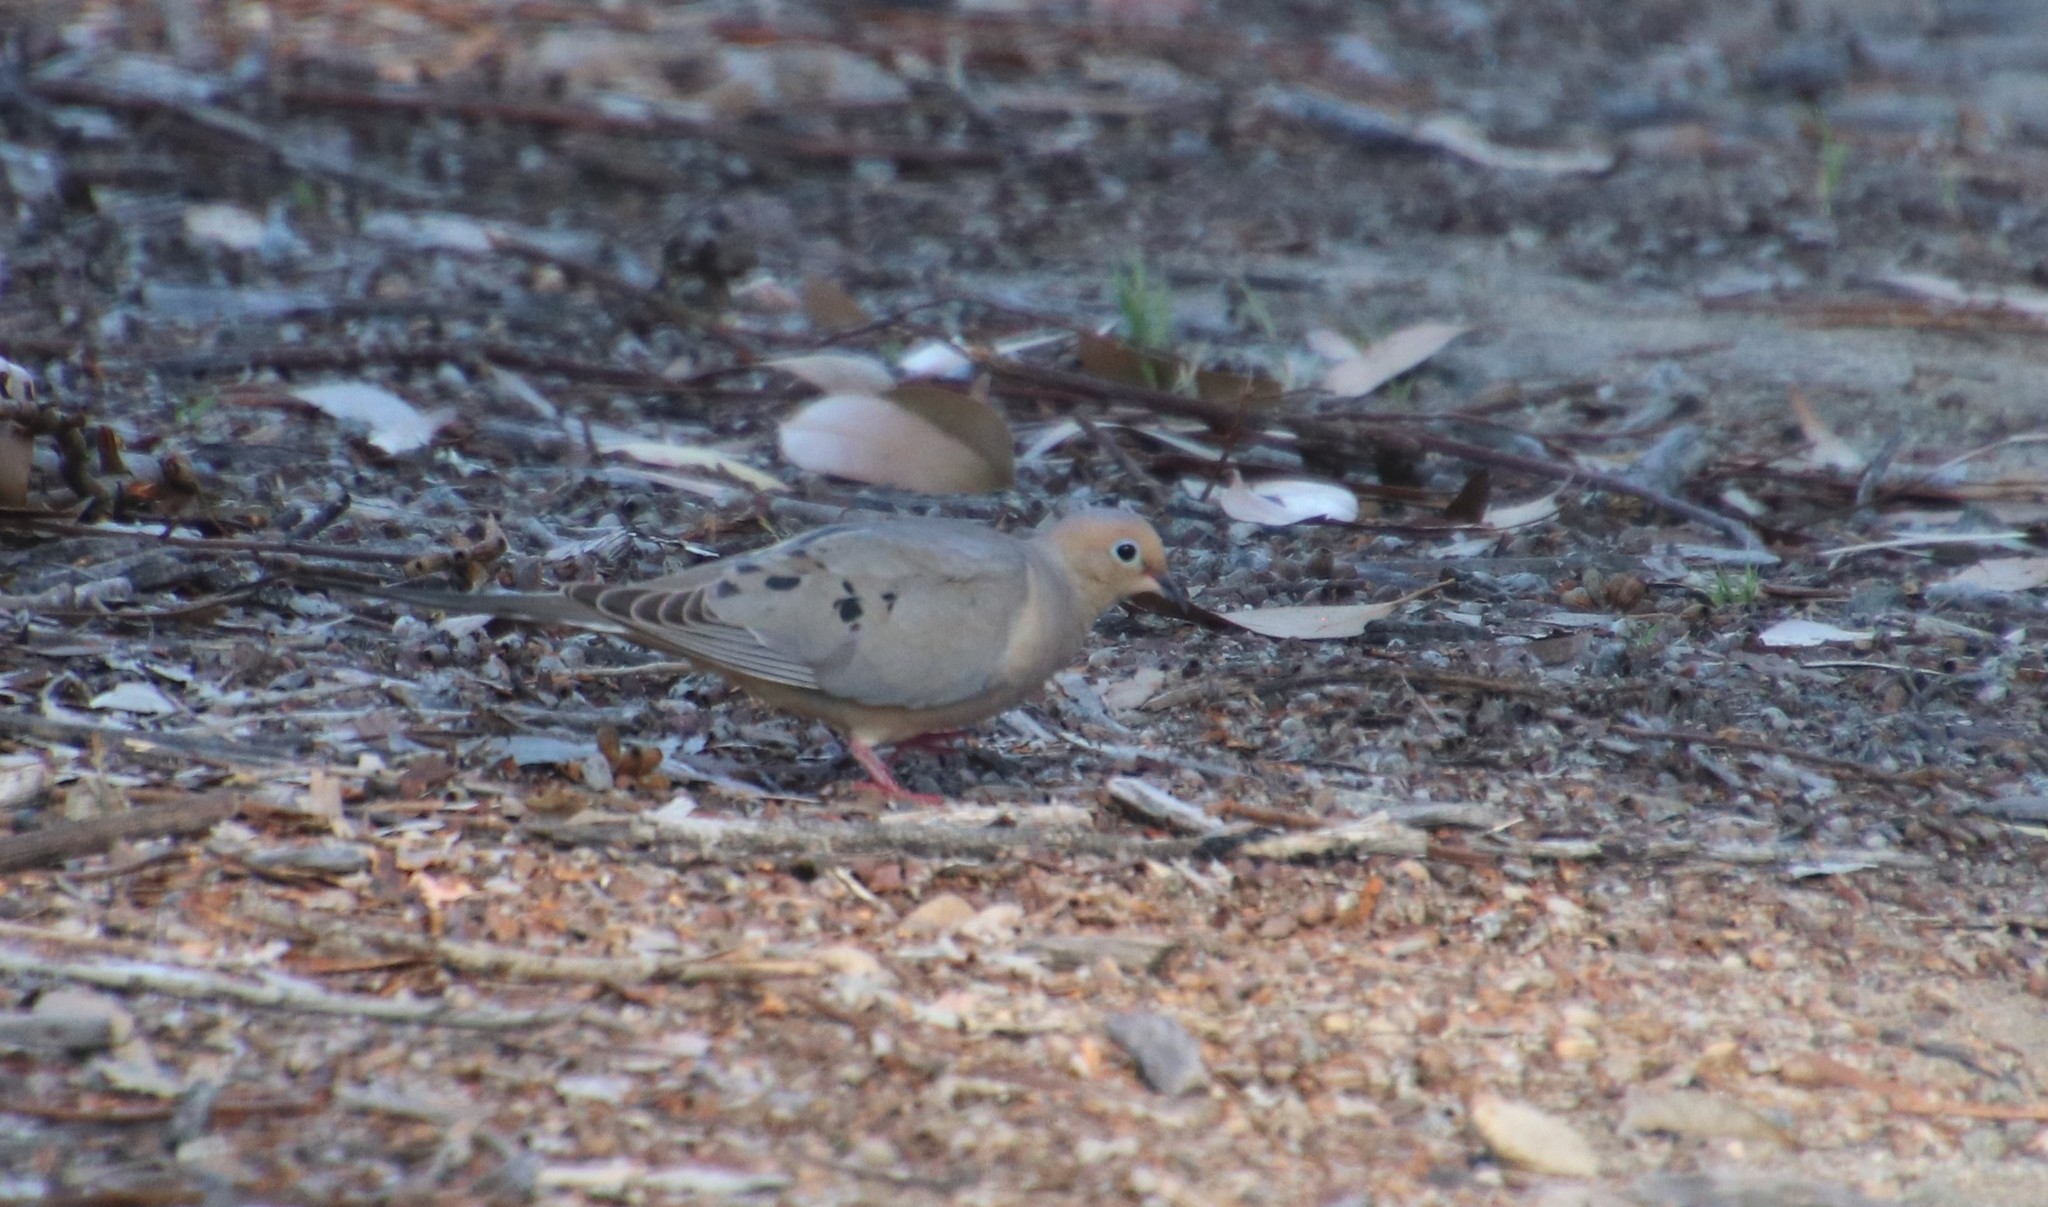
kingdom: Animalia
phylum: Chordata
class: Aves
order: Columbiformes
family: Columbidae
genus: Zenaida
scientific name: Zenaida macroura
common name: Mourning dove
